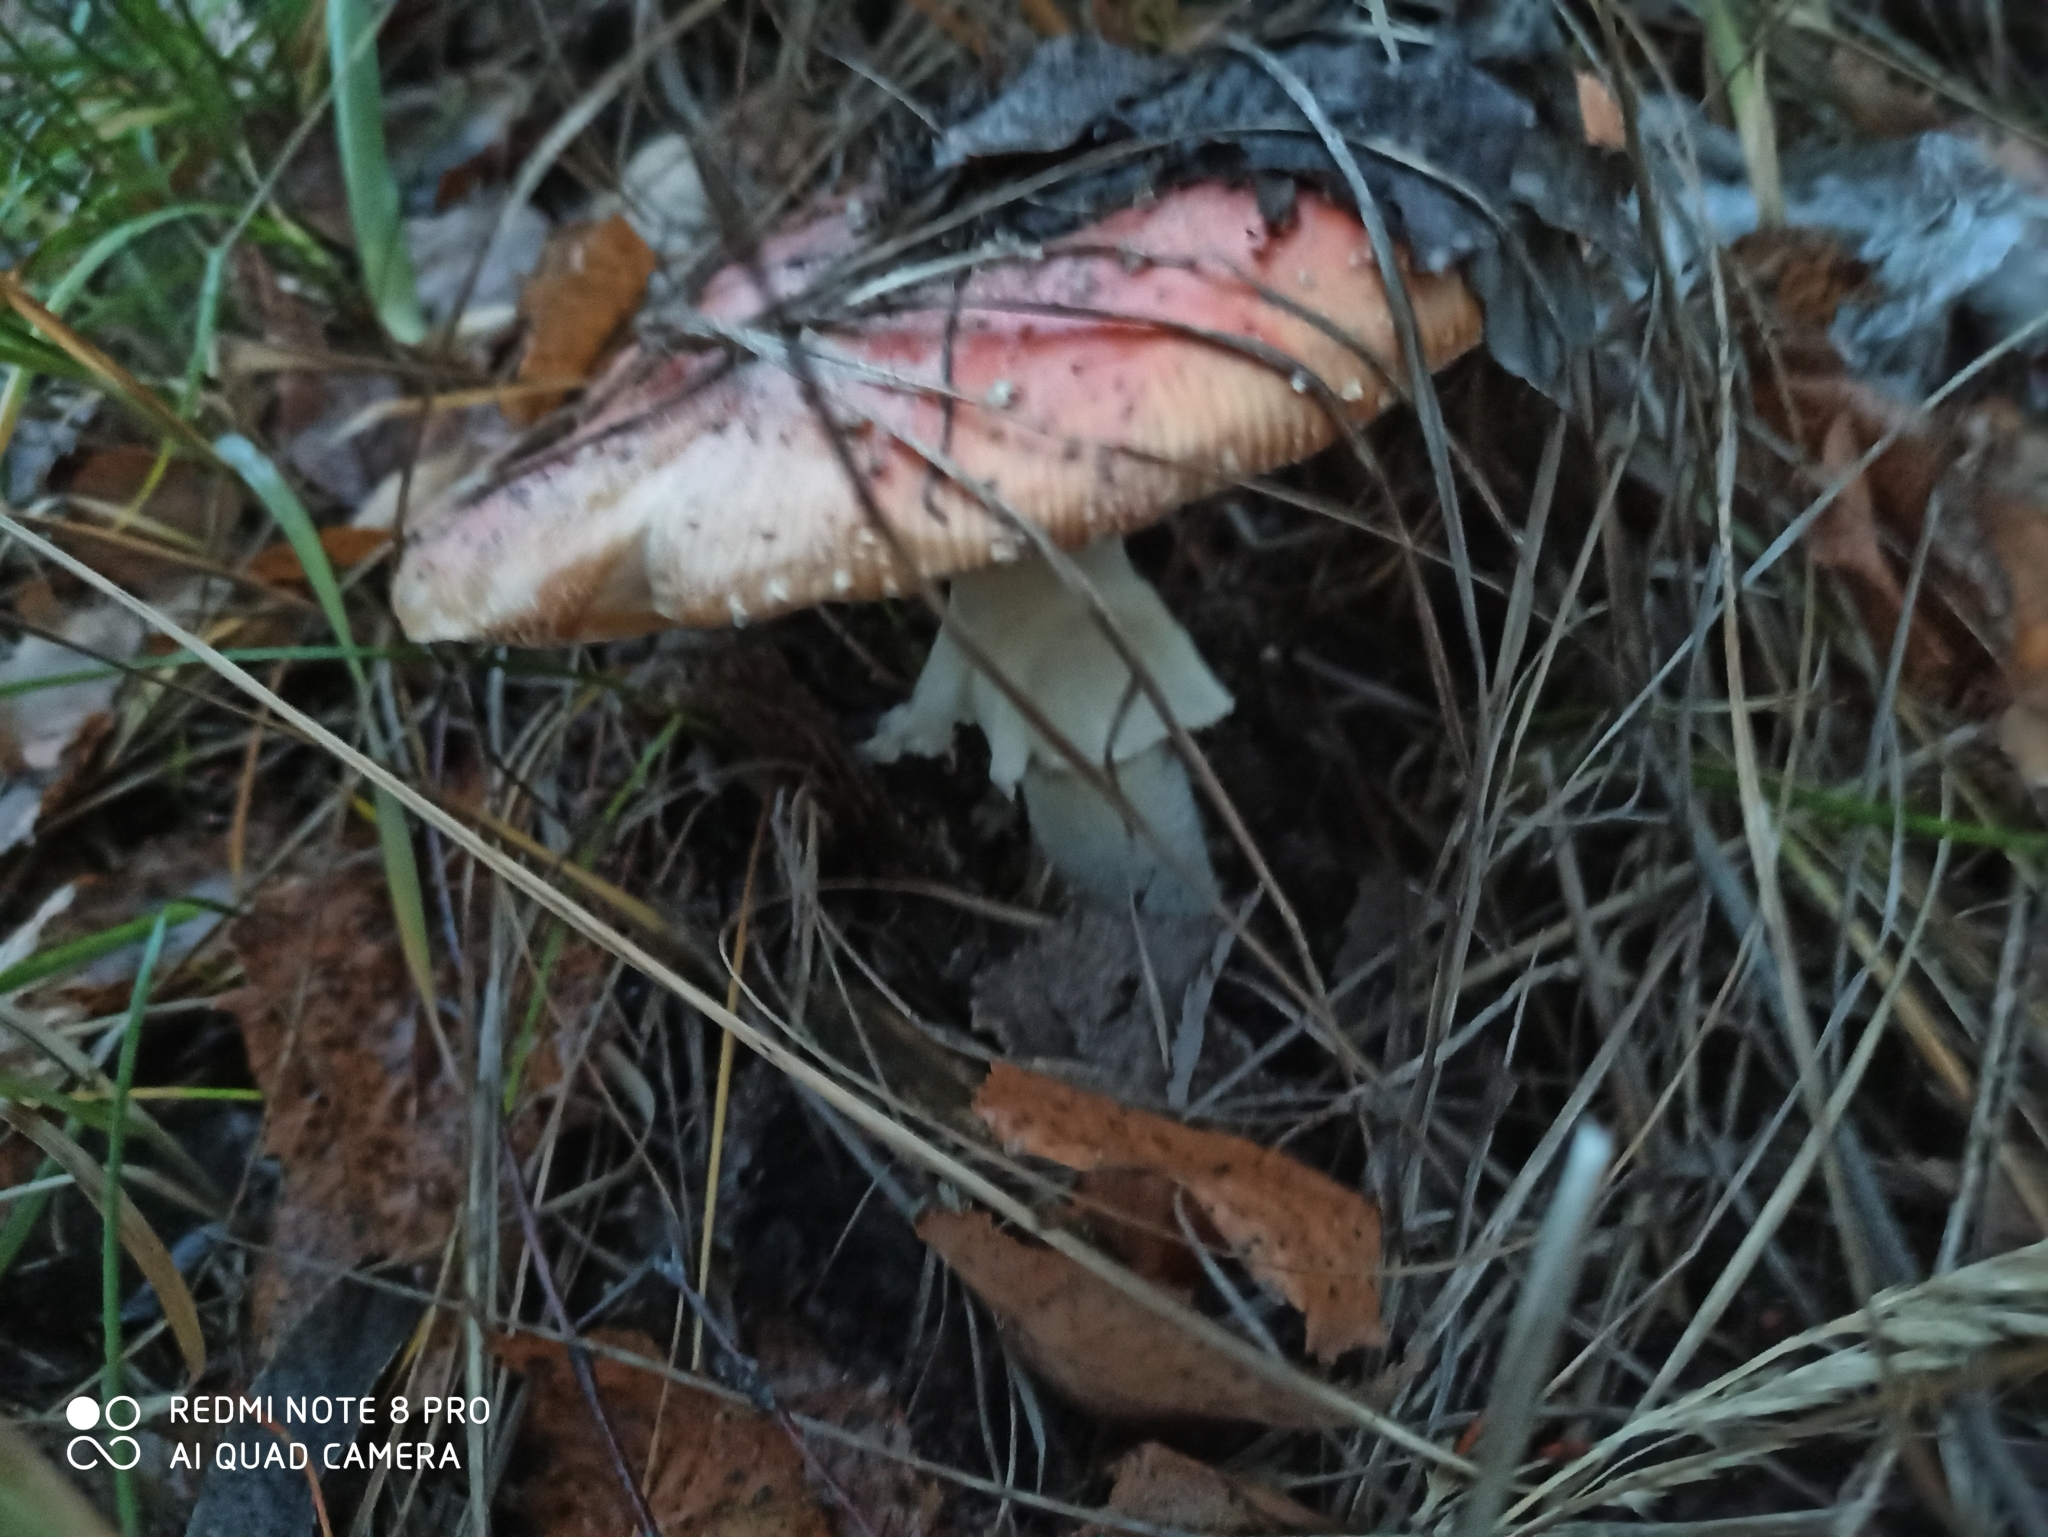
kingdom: Fungi
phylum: Basidiomycota
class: Agaricomycetes
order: Agaricales
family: Amanitaceae
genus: Amanita
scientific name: Amanita muscaria
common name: Fly agaric
